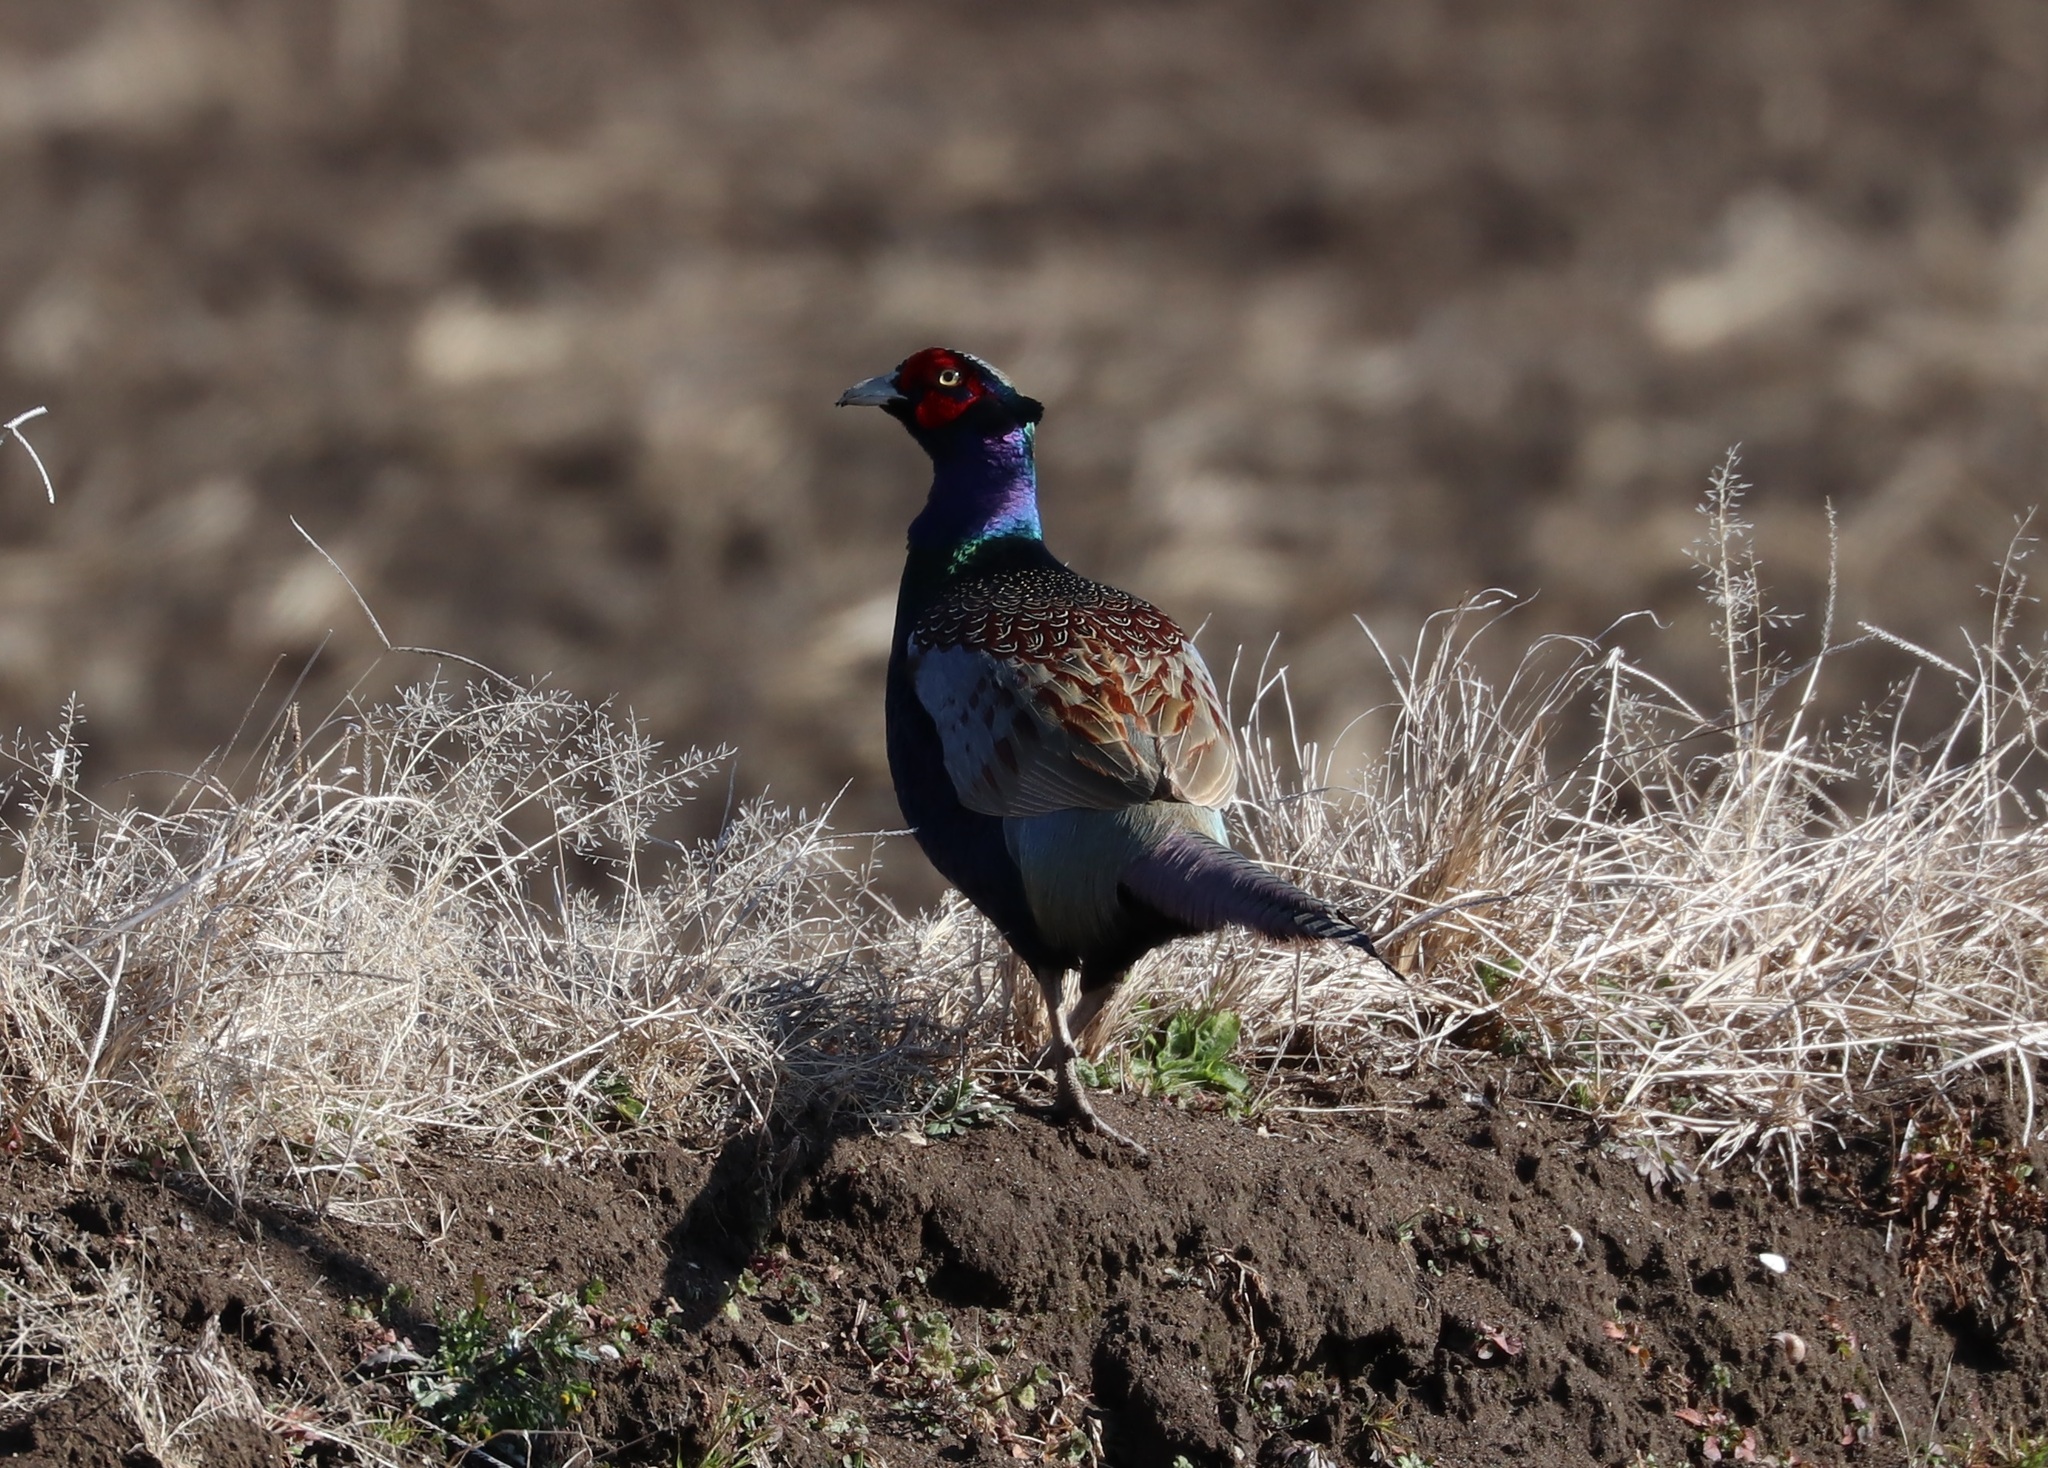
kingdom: Animalia
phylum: Chordata
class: Aves
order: Galliformes
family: Phasianidae
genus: Phasianus
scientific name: Phasianus versicolor
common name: Green pheasant
